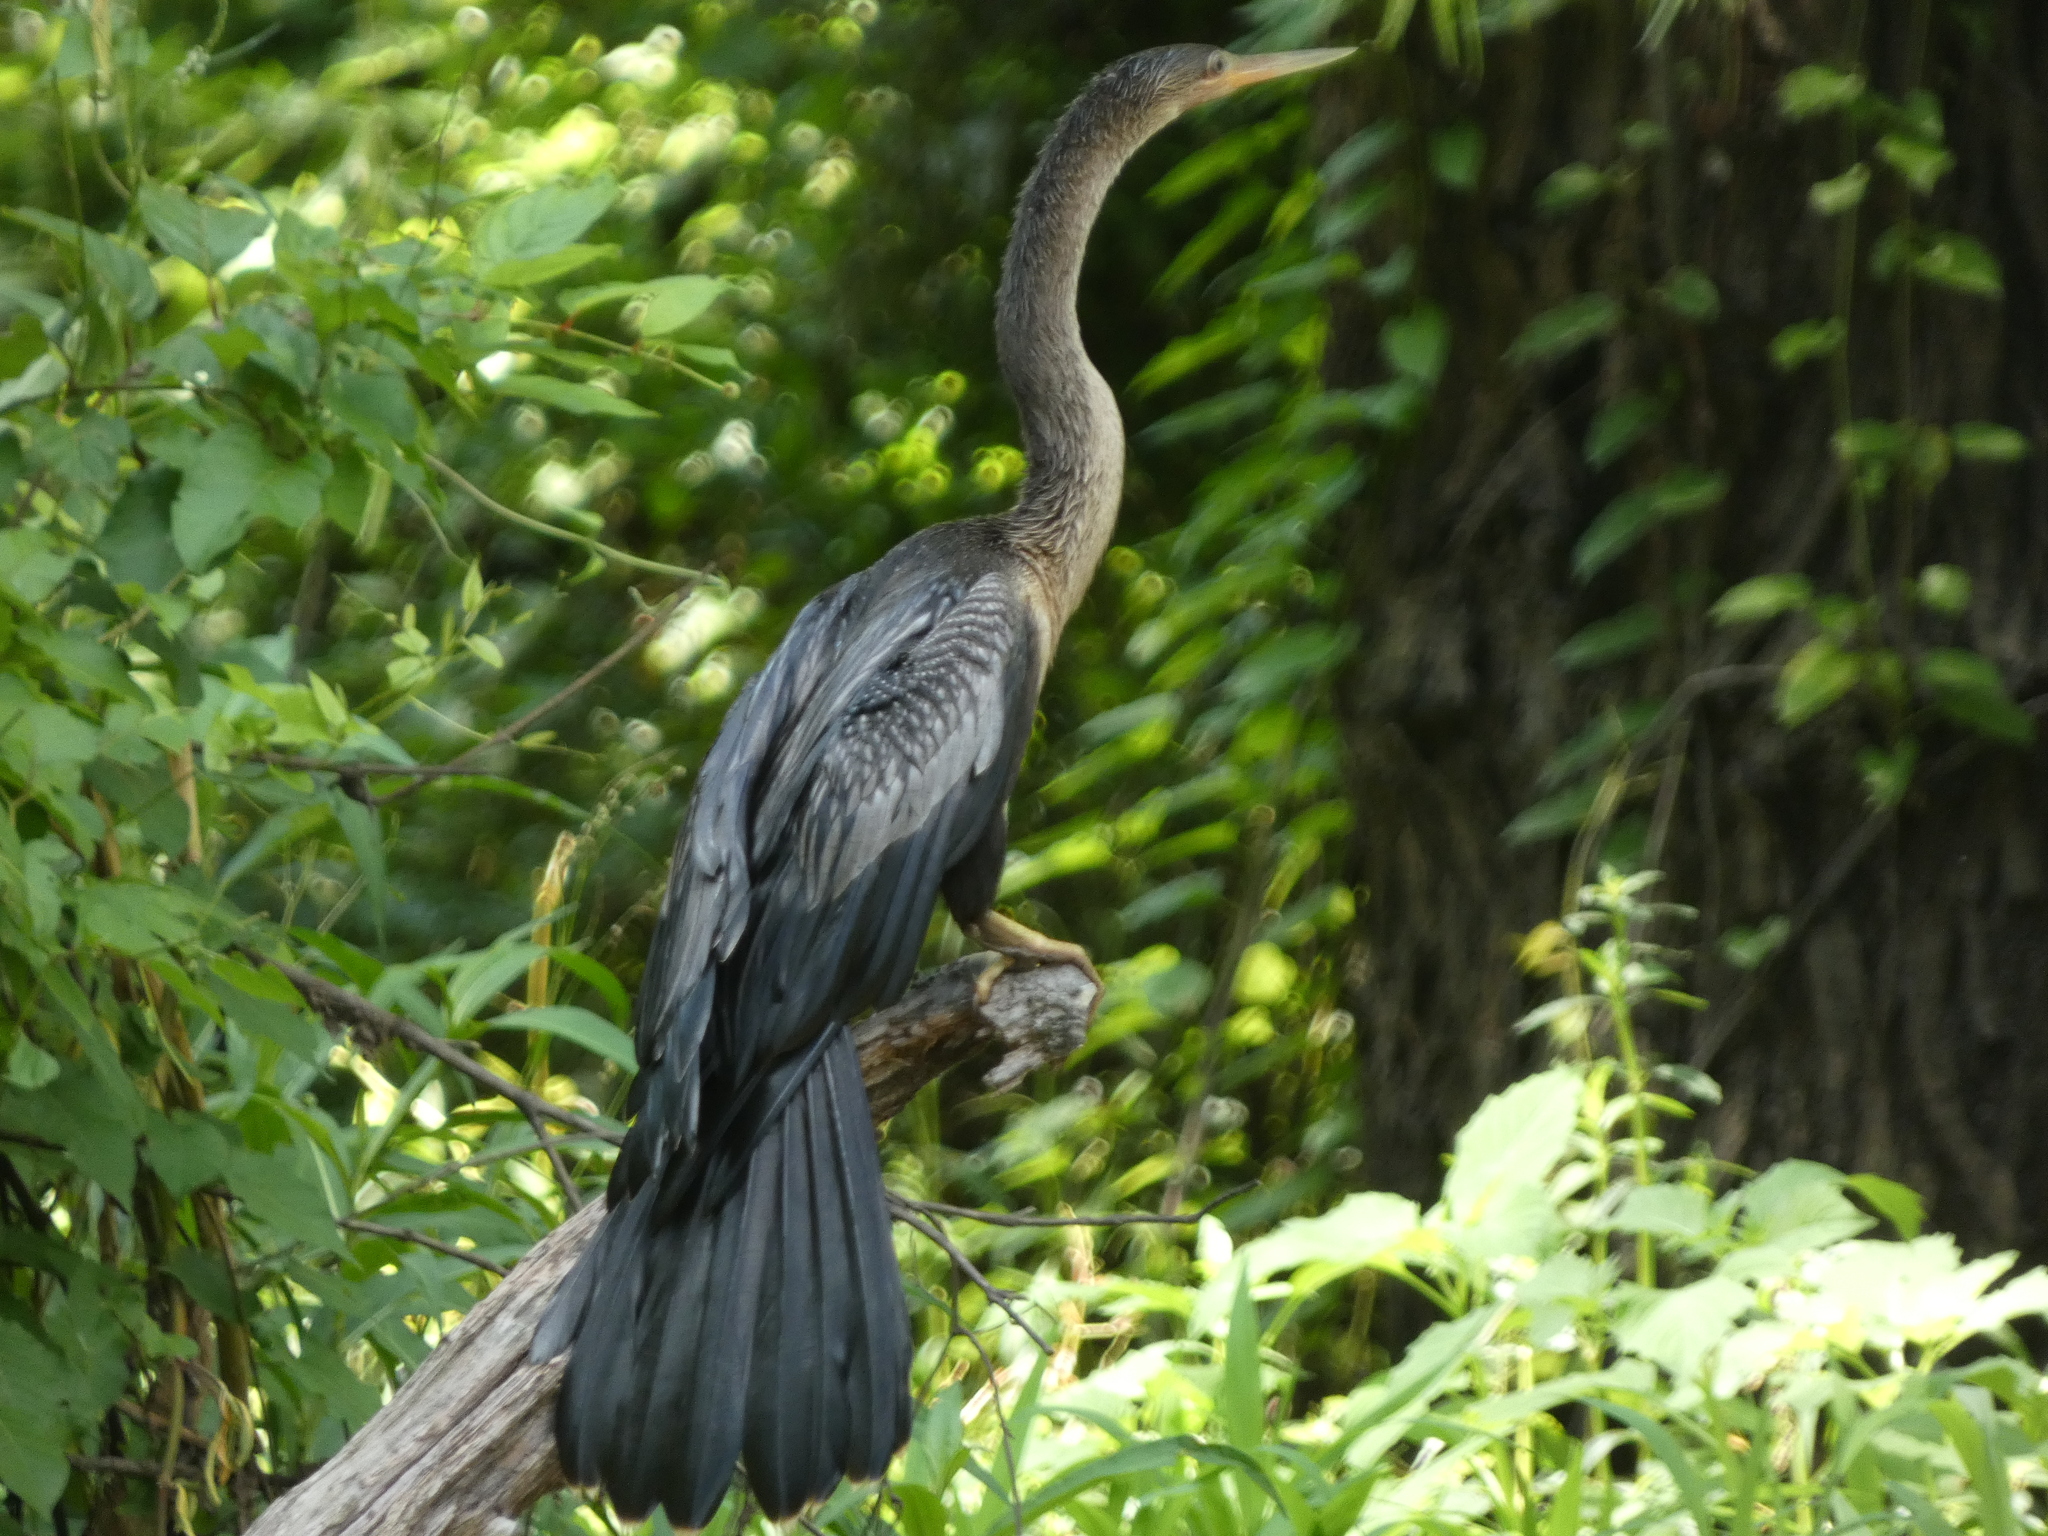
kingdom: Animalia
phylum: Chordata
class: Aves
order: Suliformes
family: Anhingidae
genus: Anhinga
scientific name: Anhinga anhinga
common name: Anhinga
